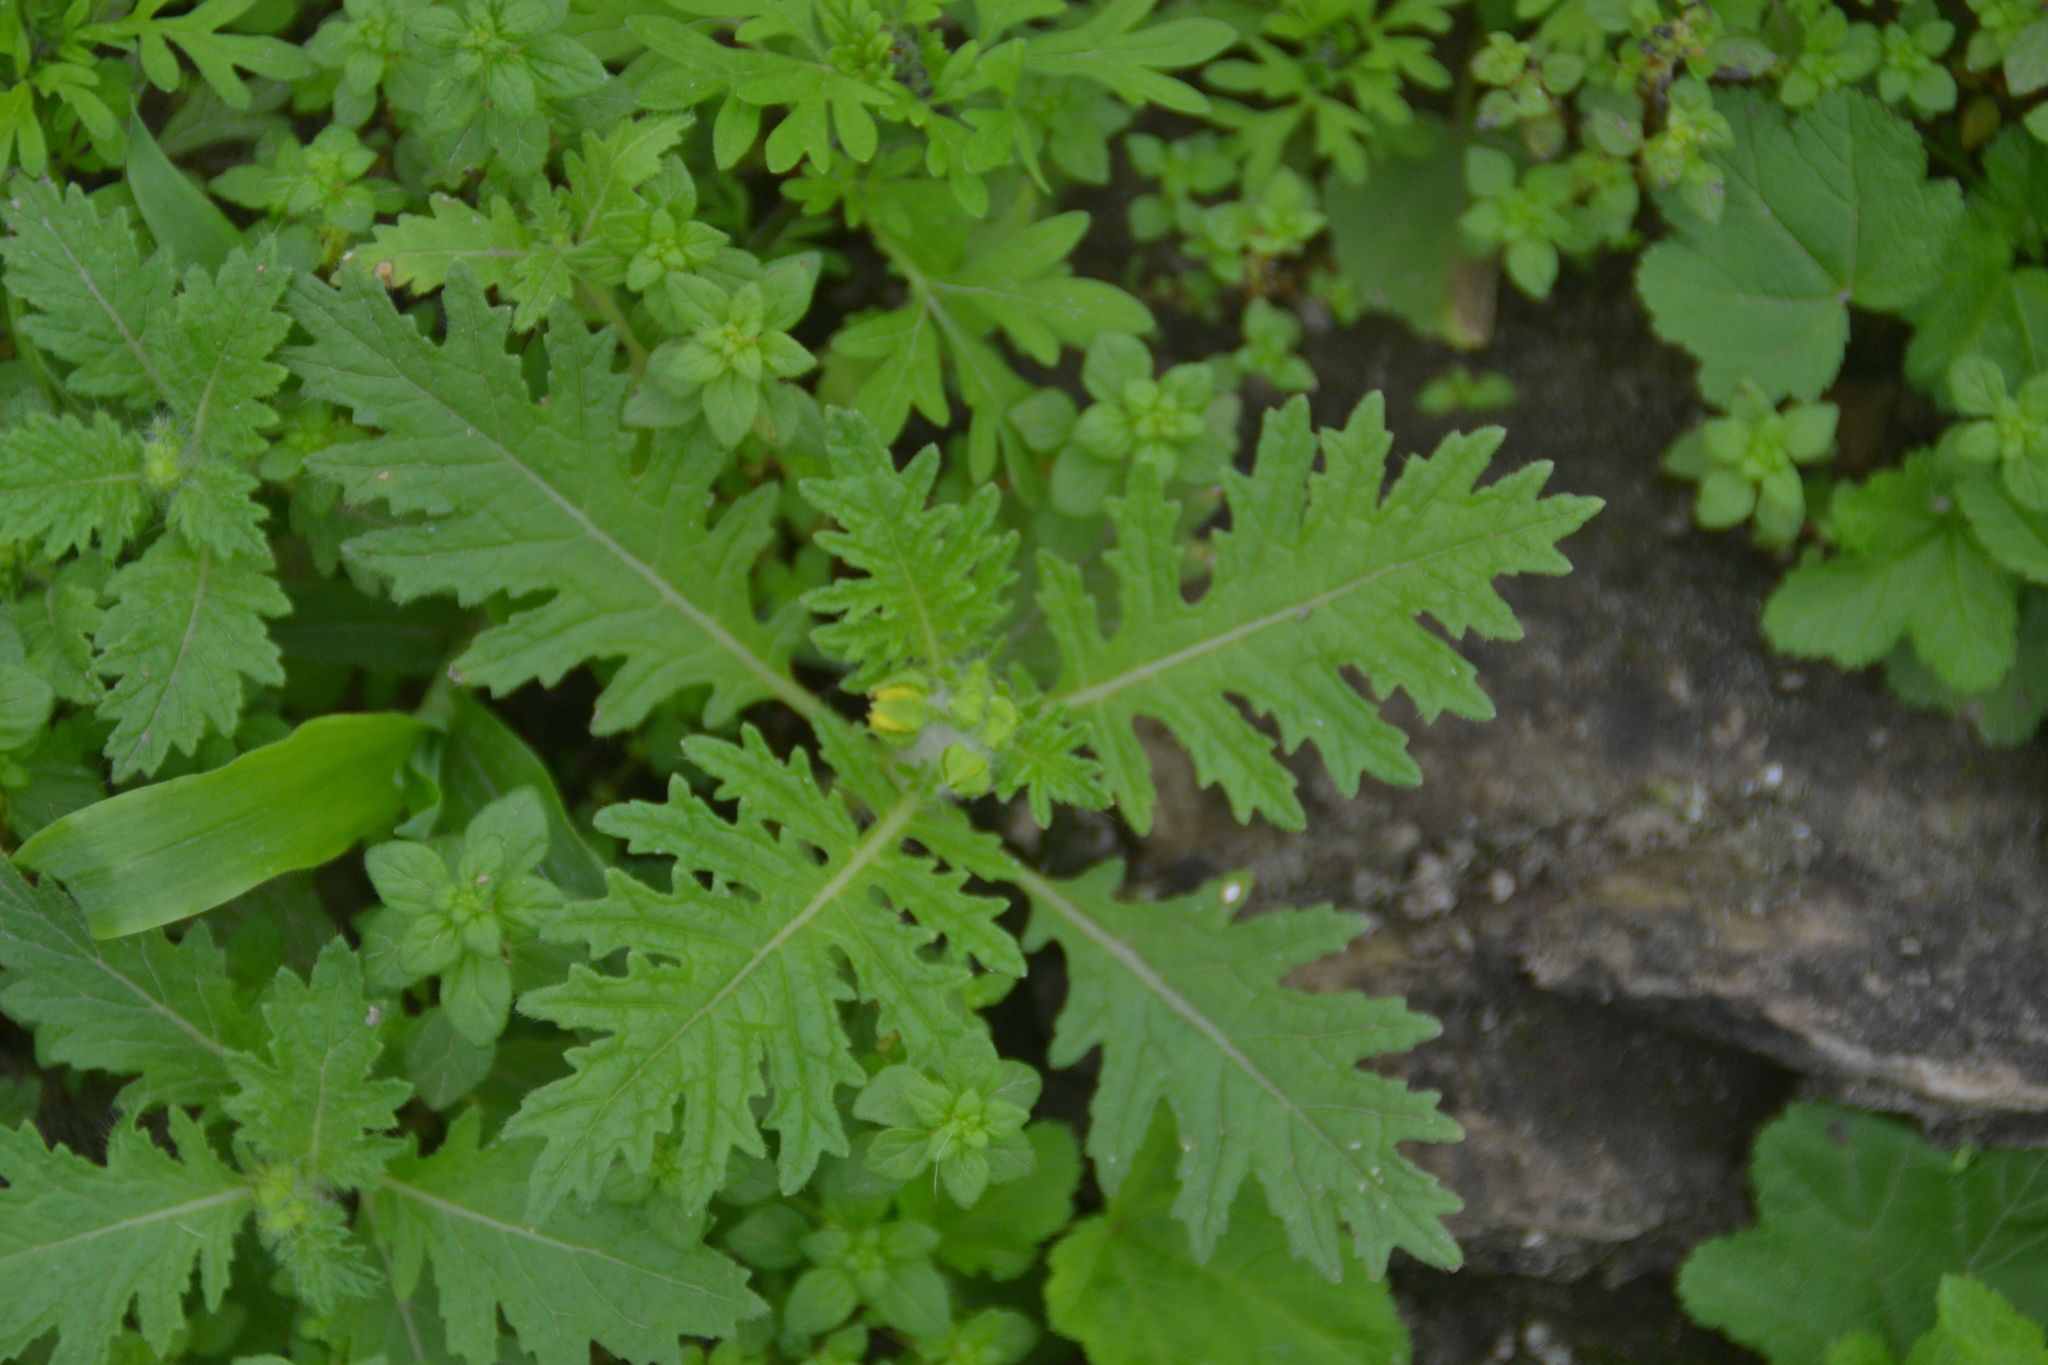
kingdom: Plantae
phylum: Tracheophyta
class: Magnoliopsida
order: Asterales
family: Asteraceae
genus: Villanova
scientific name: Villanova oppositifolia
